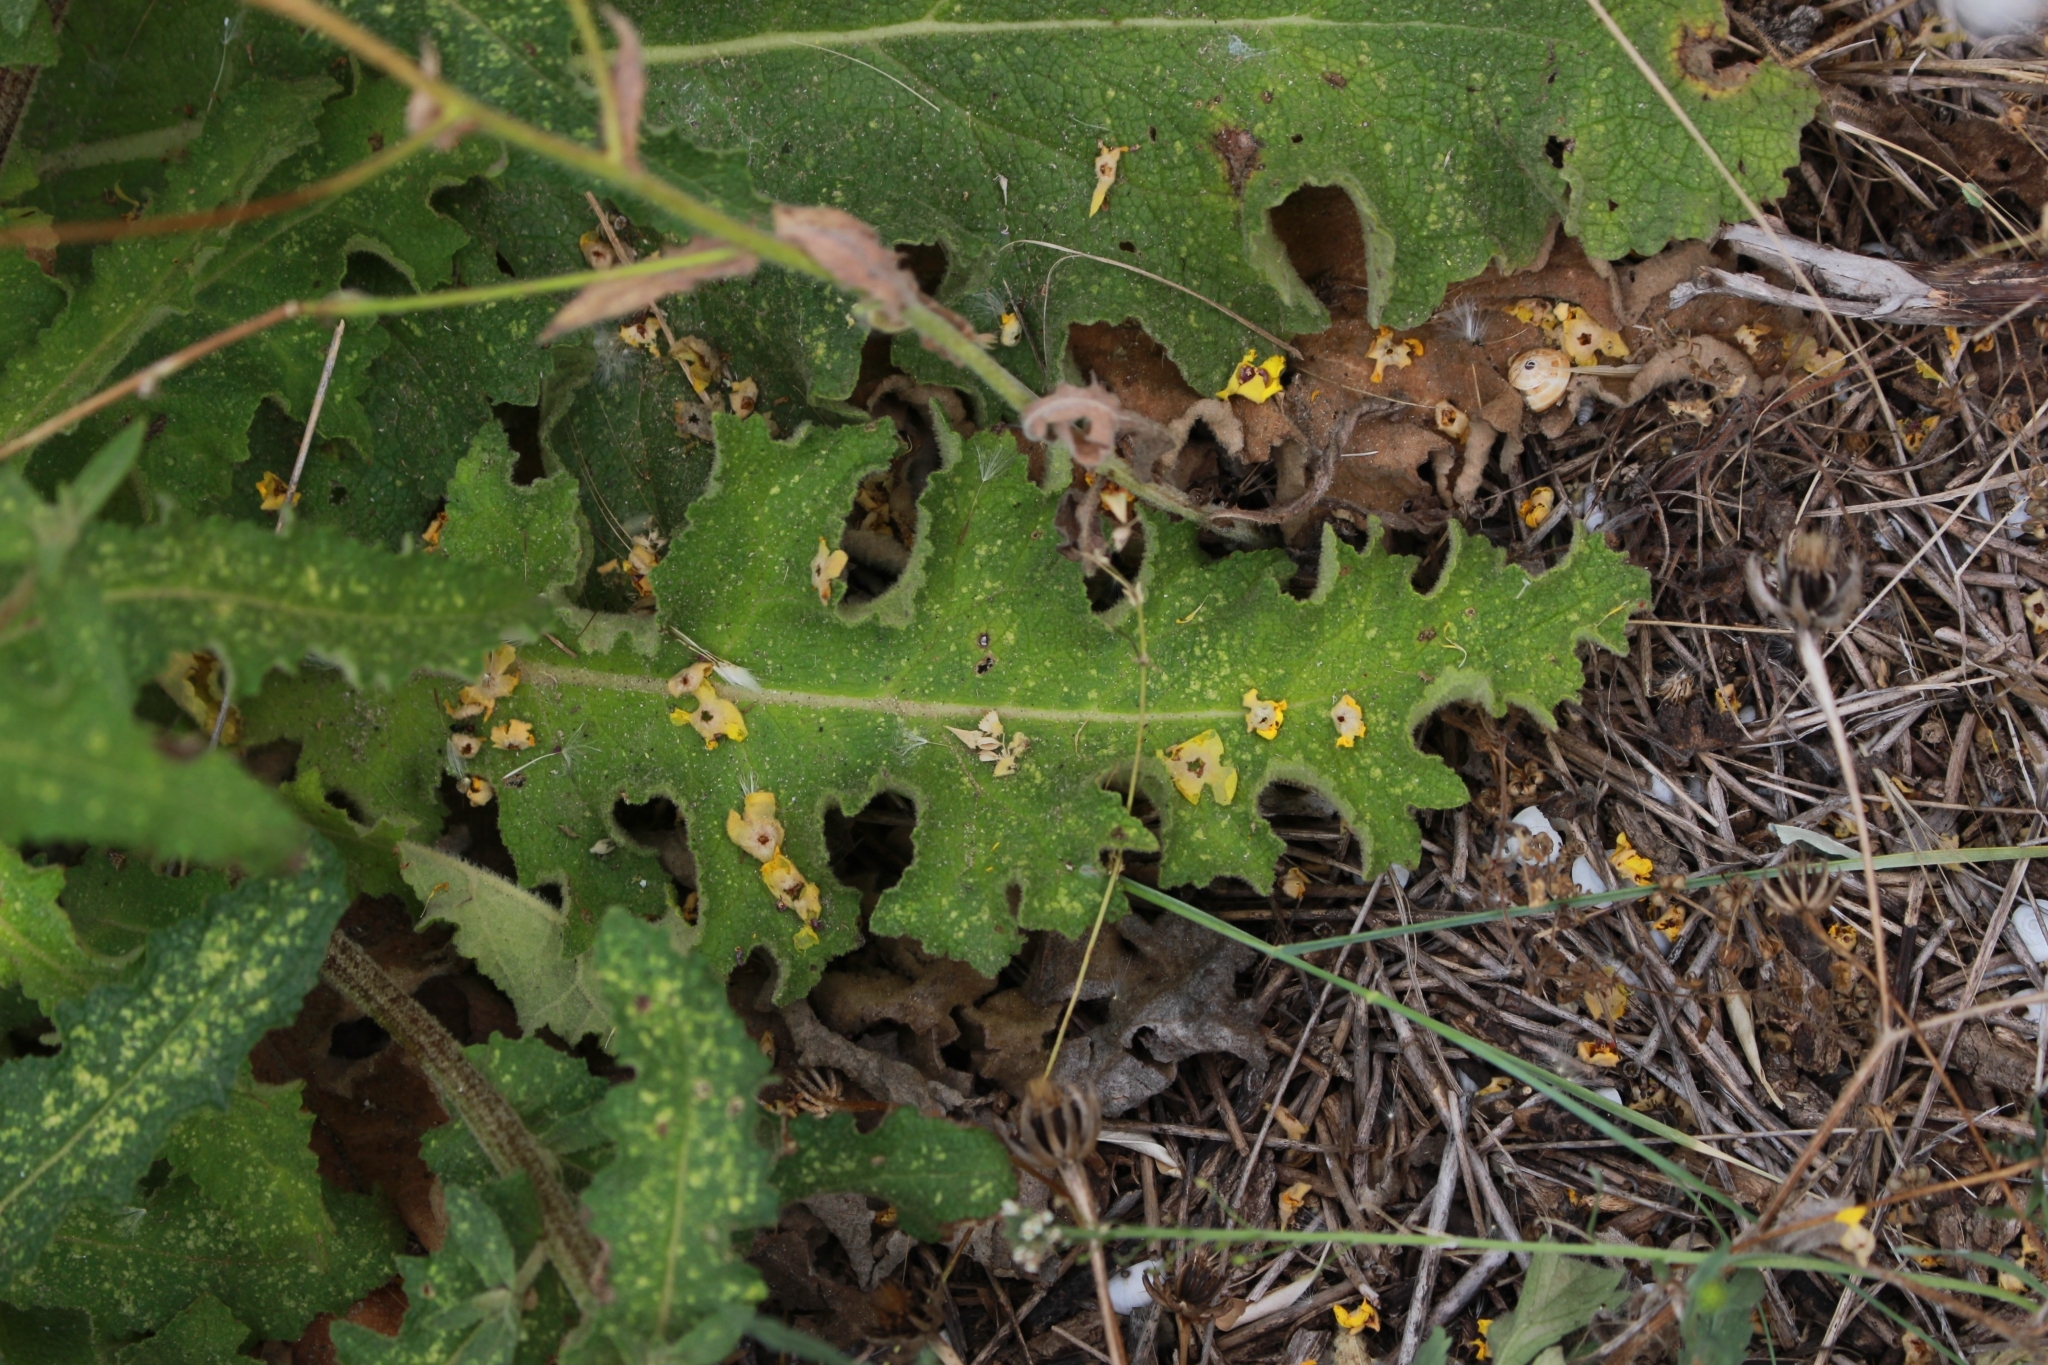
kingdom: Plantae
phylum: Tracheophyta
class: Magnoliopsida
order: Lamiales
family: Scrophulariaceae
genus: Verbascum
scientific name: Verbascum sinuatum
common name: Wavyleaf mullein
